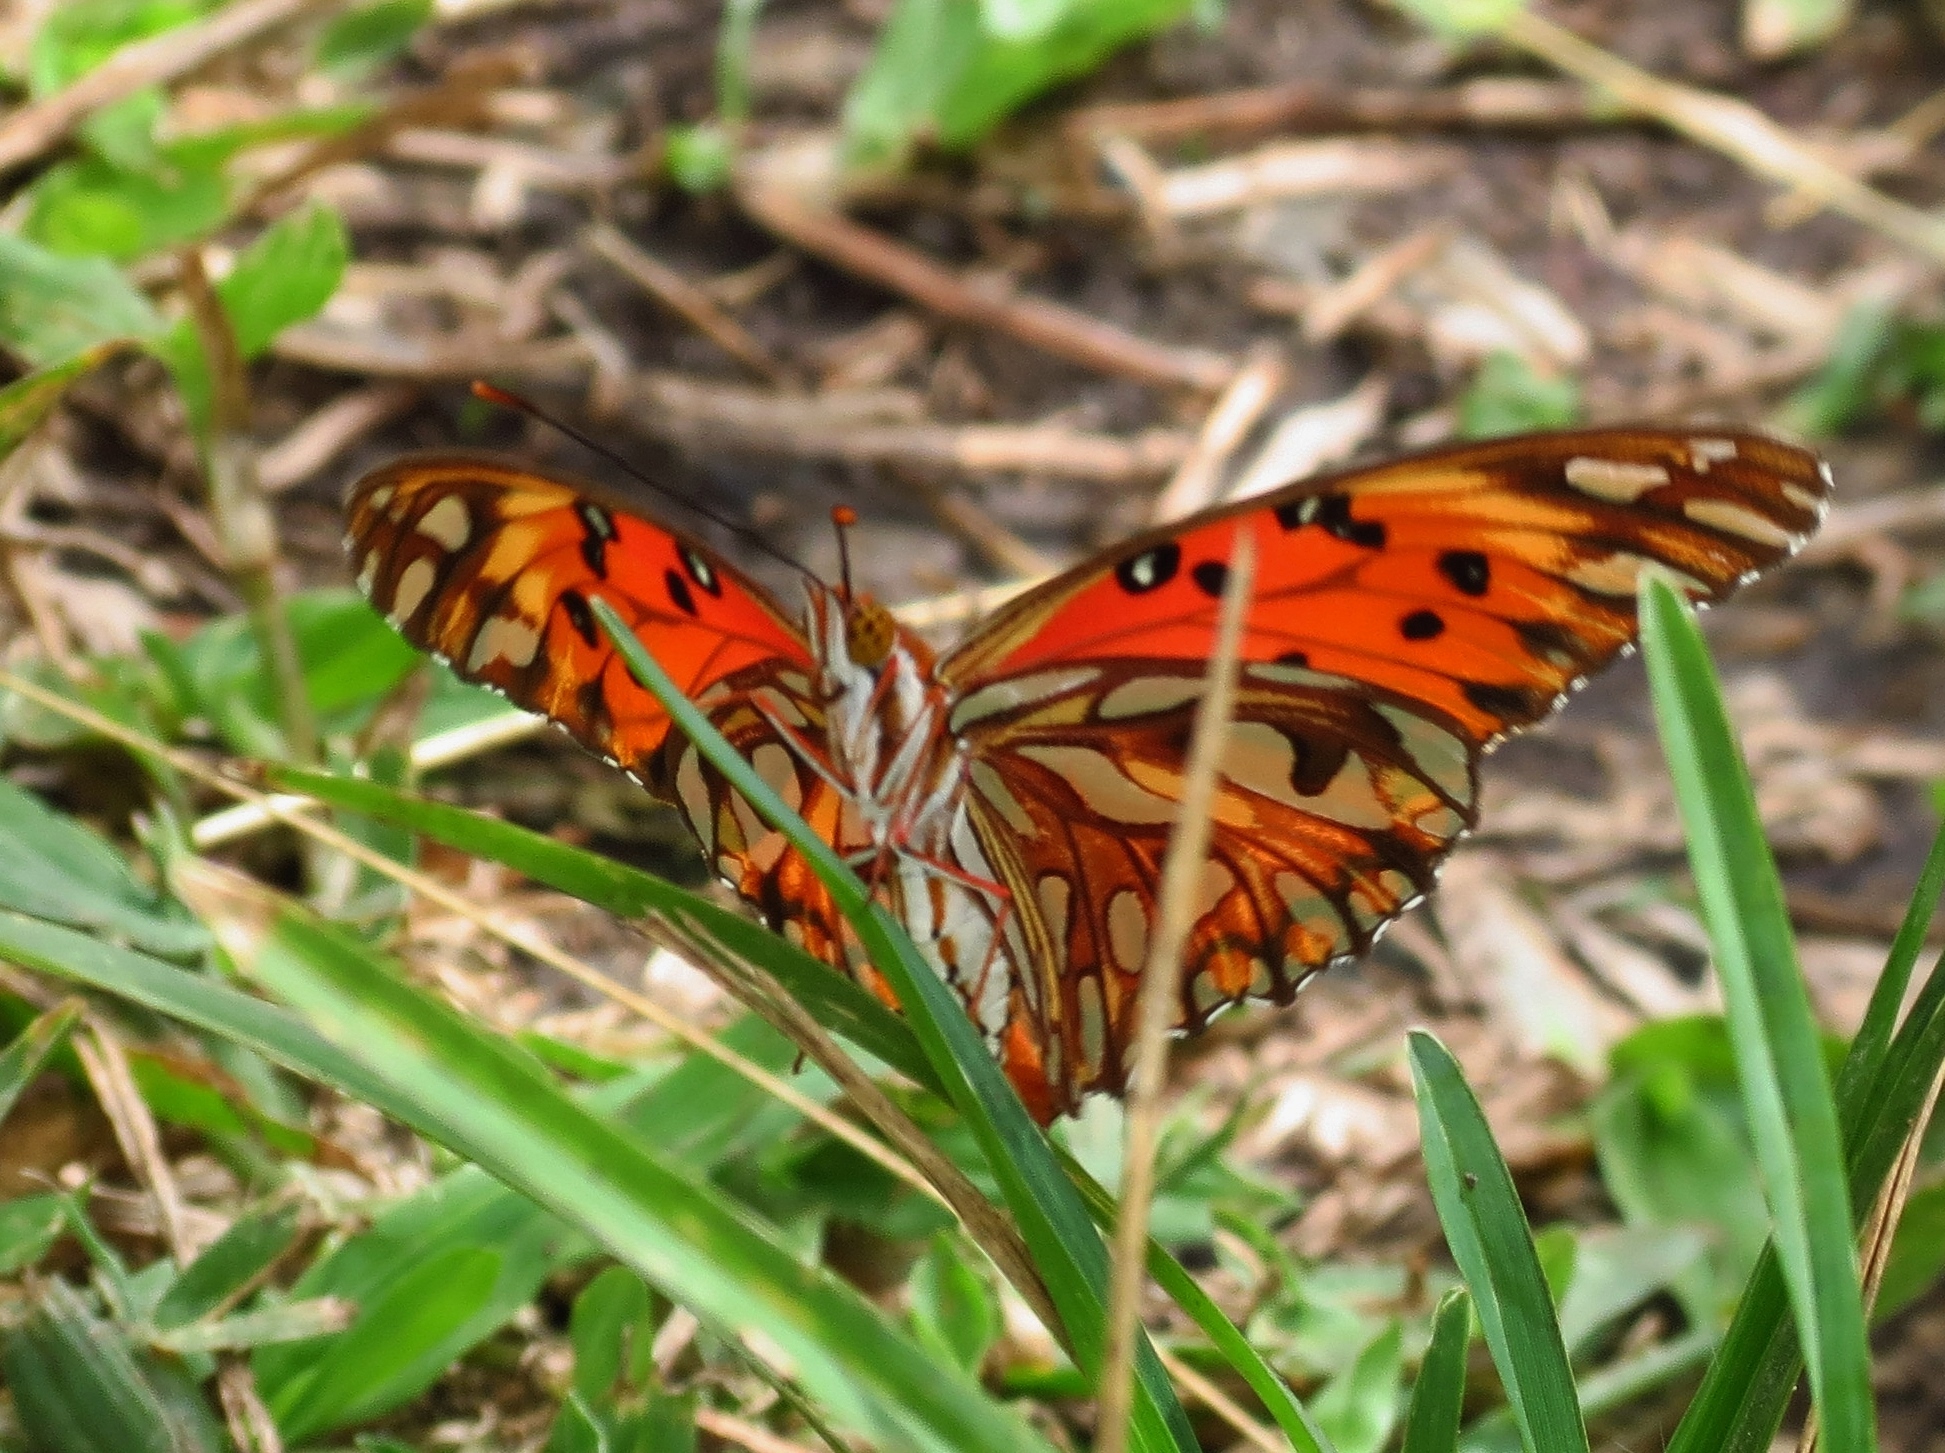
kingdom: Animalia
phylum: Arthropoda
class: Insecta
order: Lepidoptera
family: Nymphalidae
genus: Dione
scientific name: Dione vanillae
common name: Gulf fritillary
